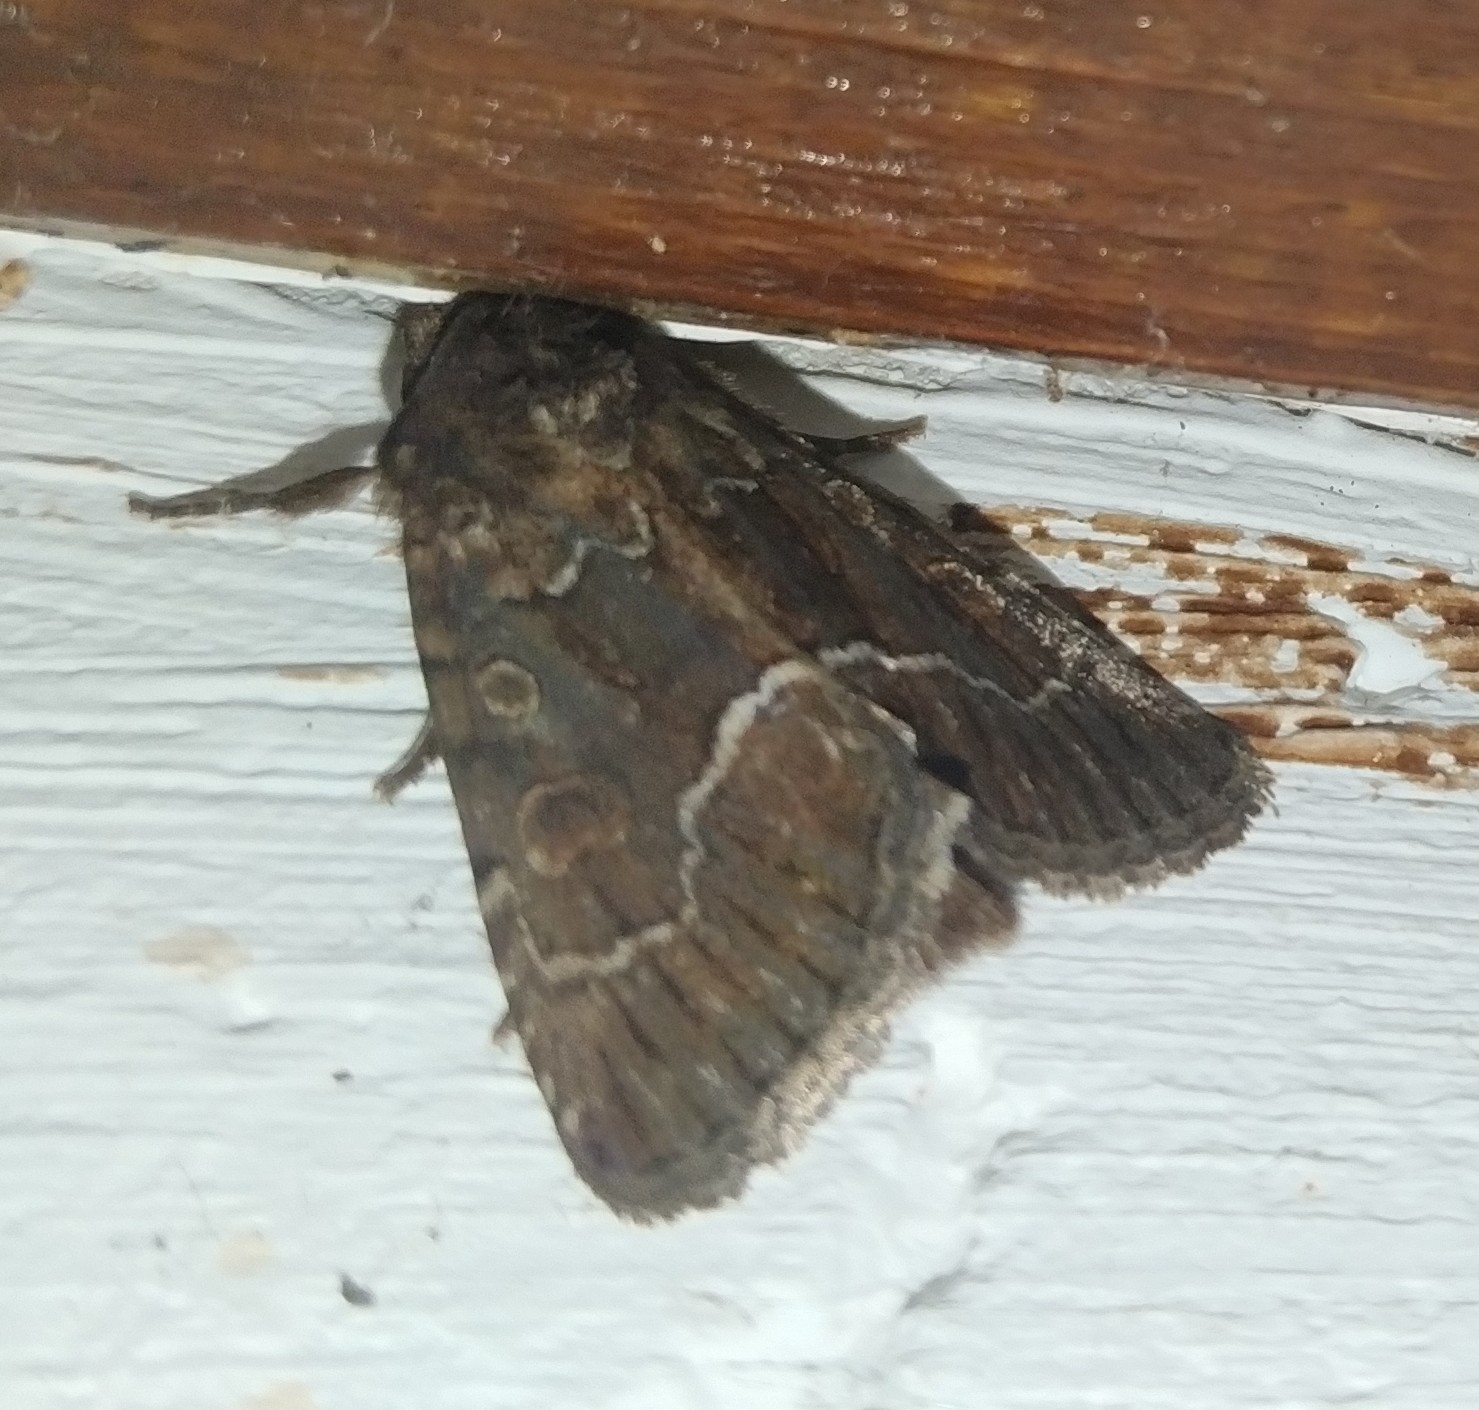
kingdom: Animalia
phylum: Arthropoda
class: Insecta
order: Lepidoptera
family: Noctuidae
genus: Thalpophila
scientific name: Thalpophila matura
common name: Straw underwing
